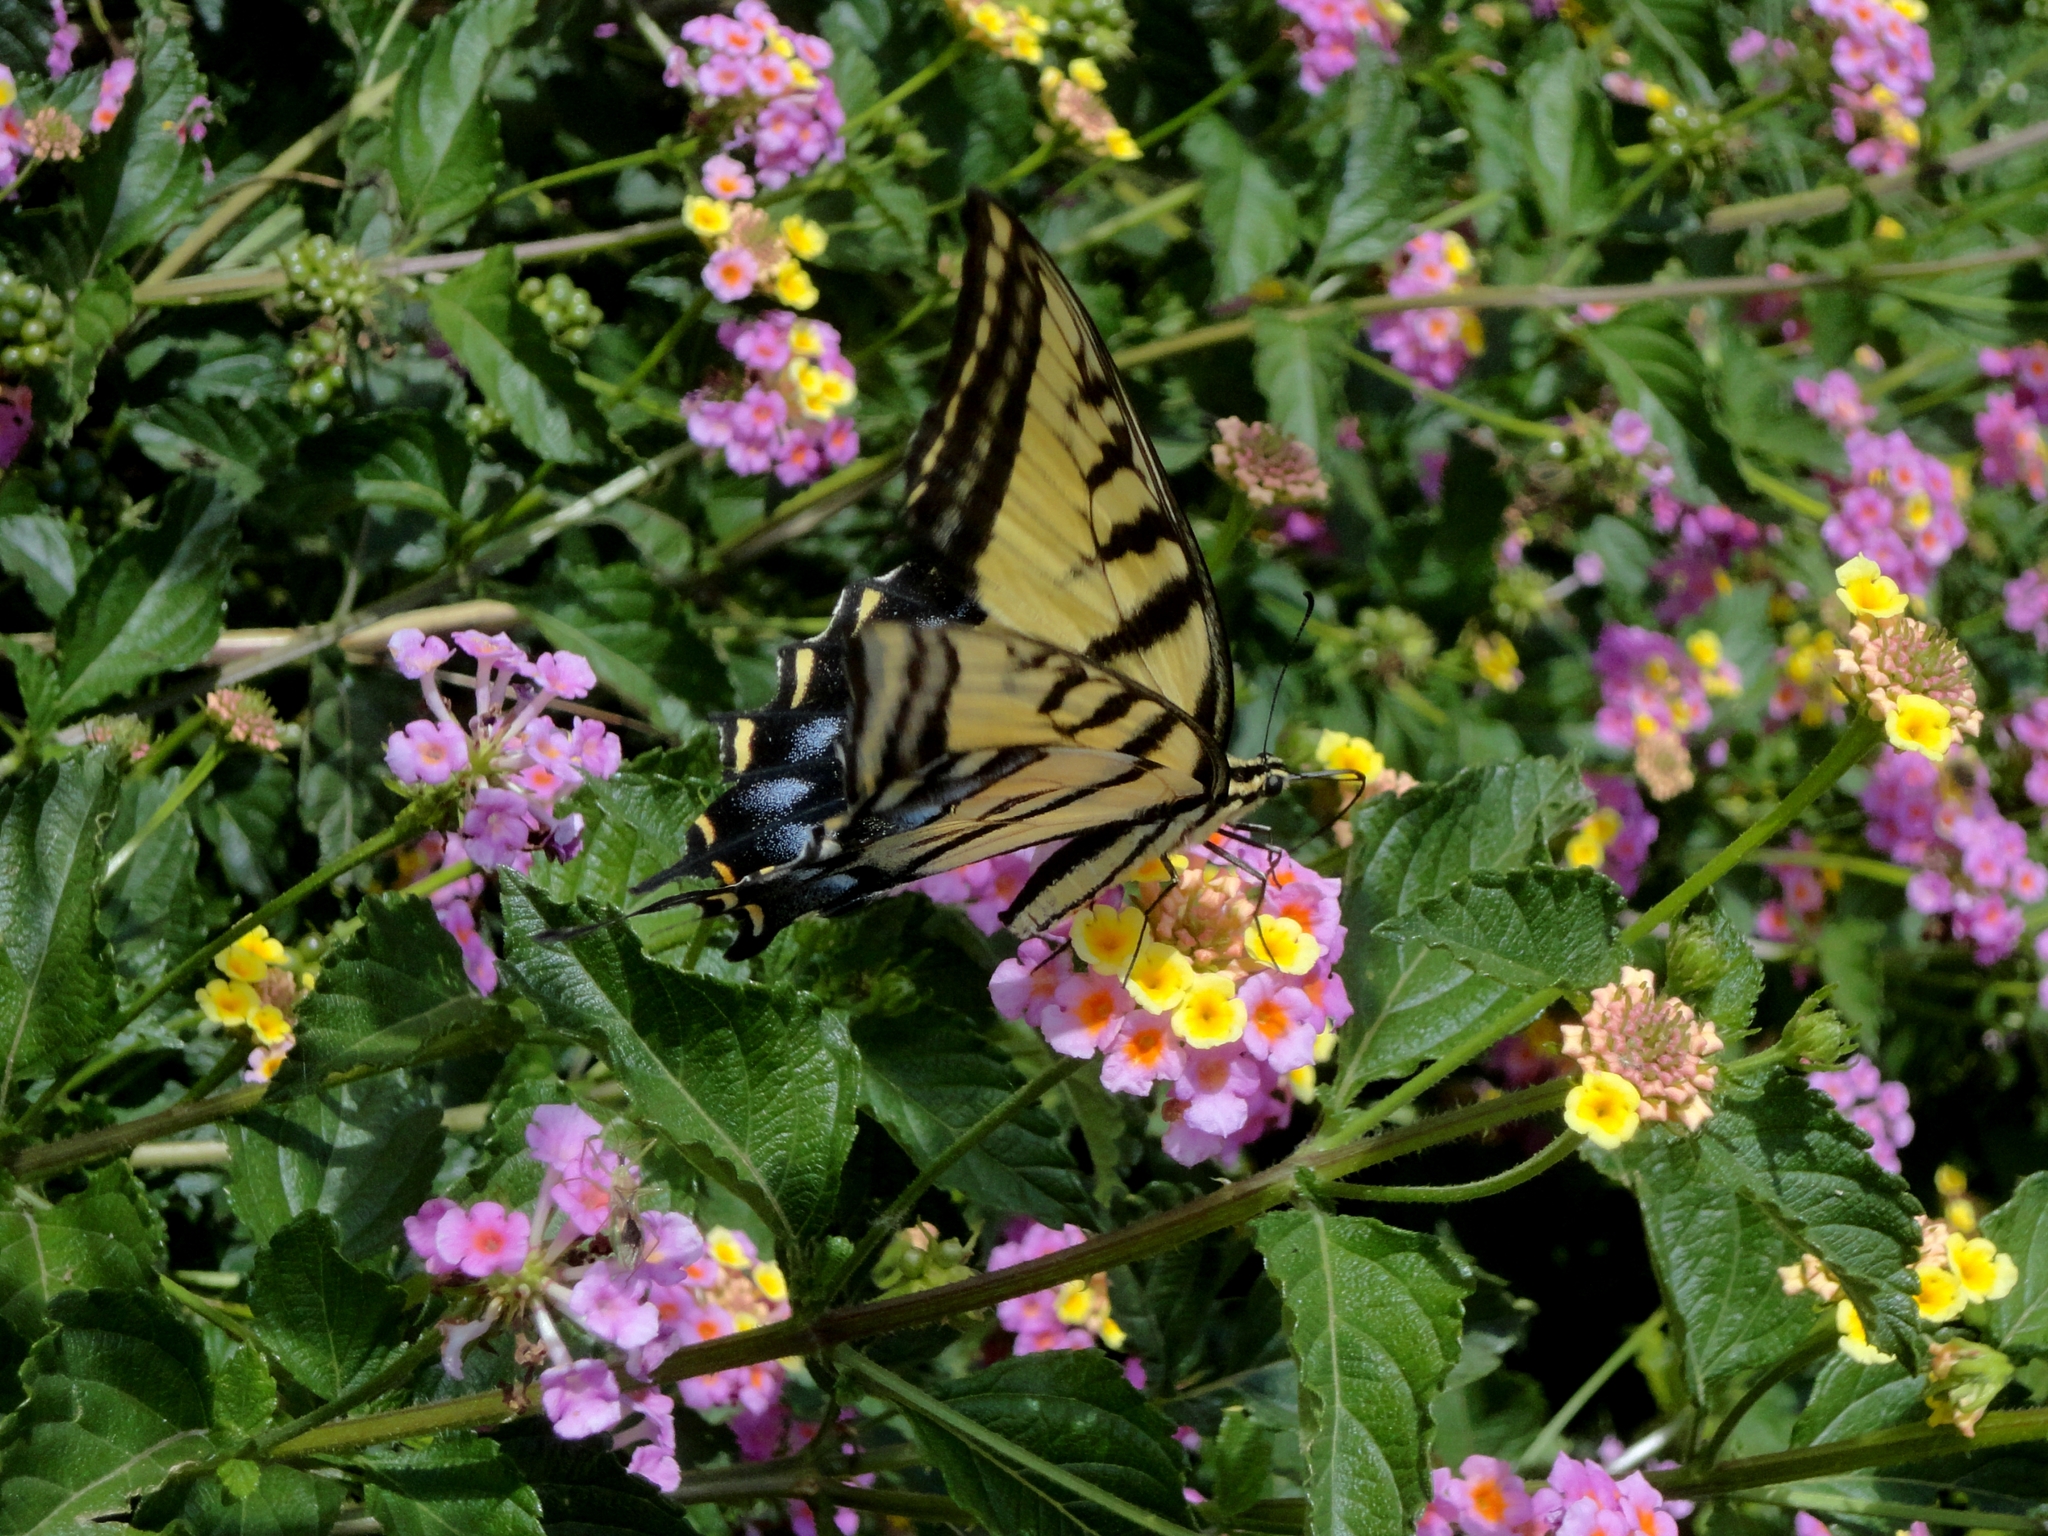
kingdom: Animalia
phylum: Arthropoda
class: Insecta
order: Lepidoptera
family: Papilionidae
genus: Papilio
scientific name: Papilio multicaudata
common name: Two-tailed tiger swallowtail
